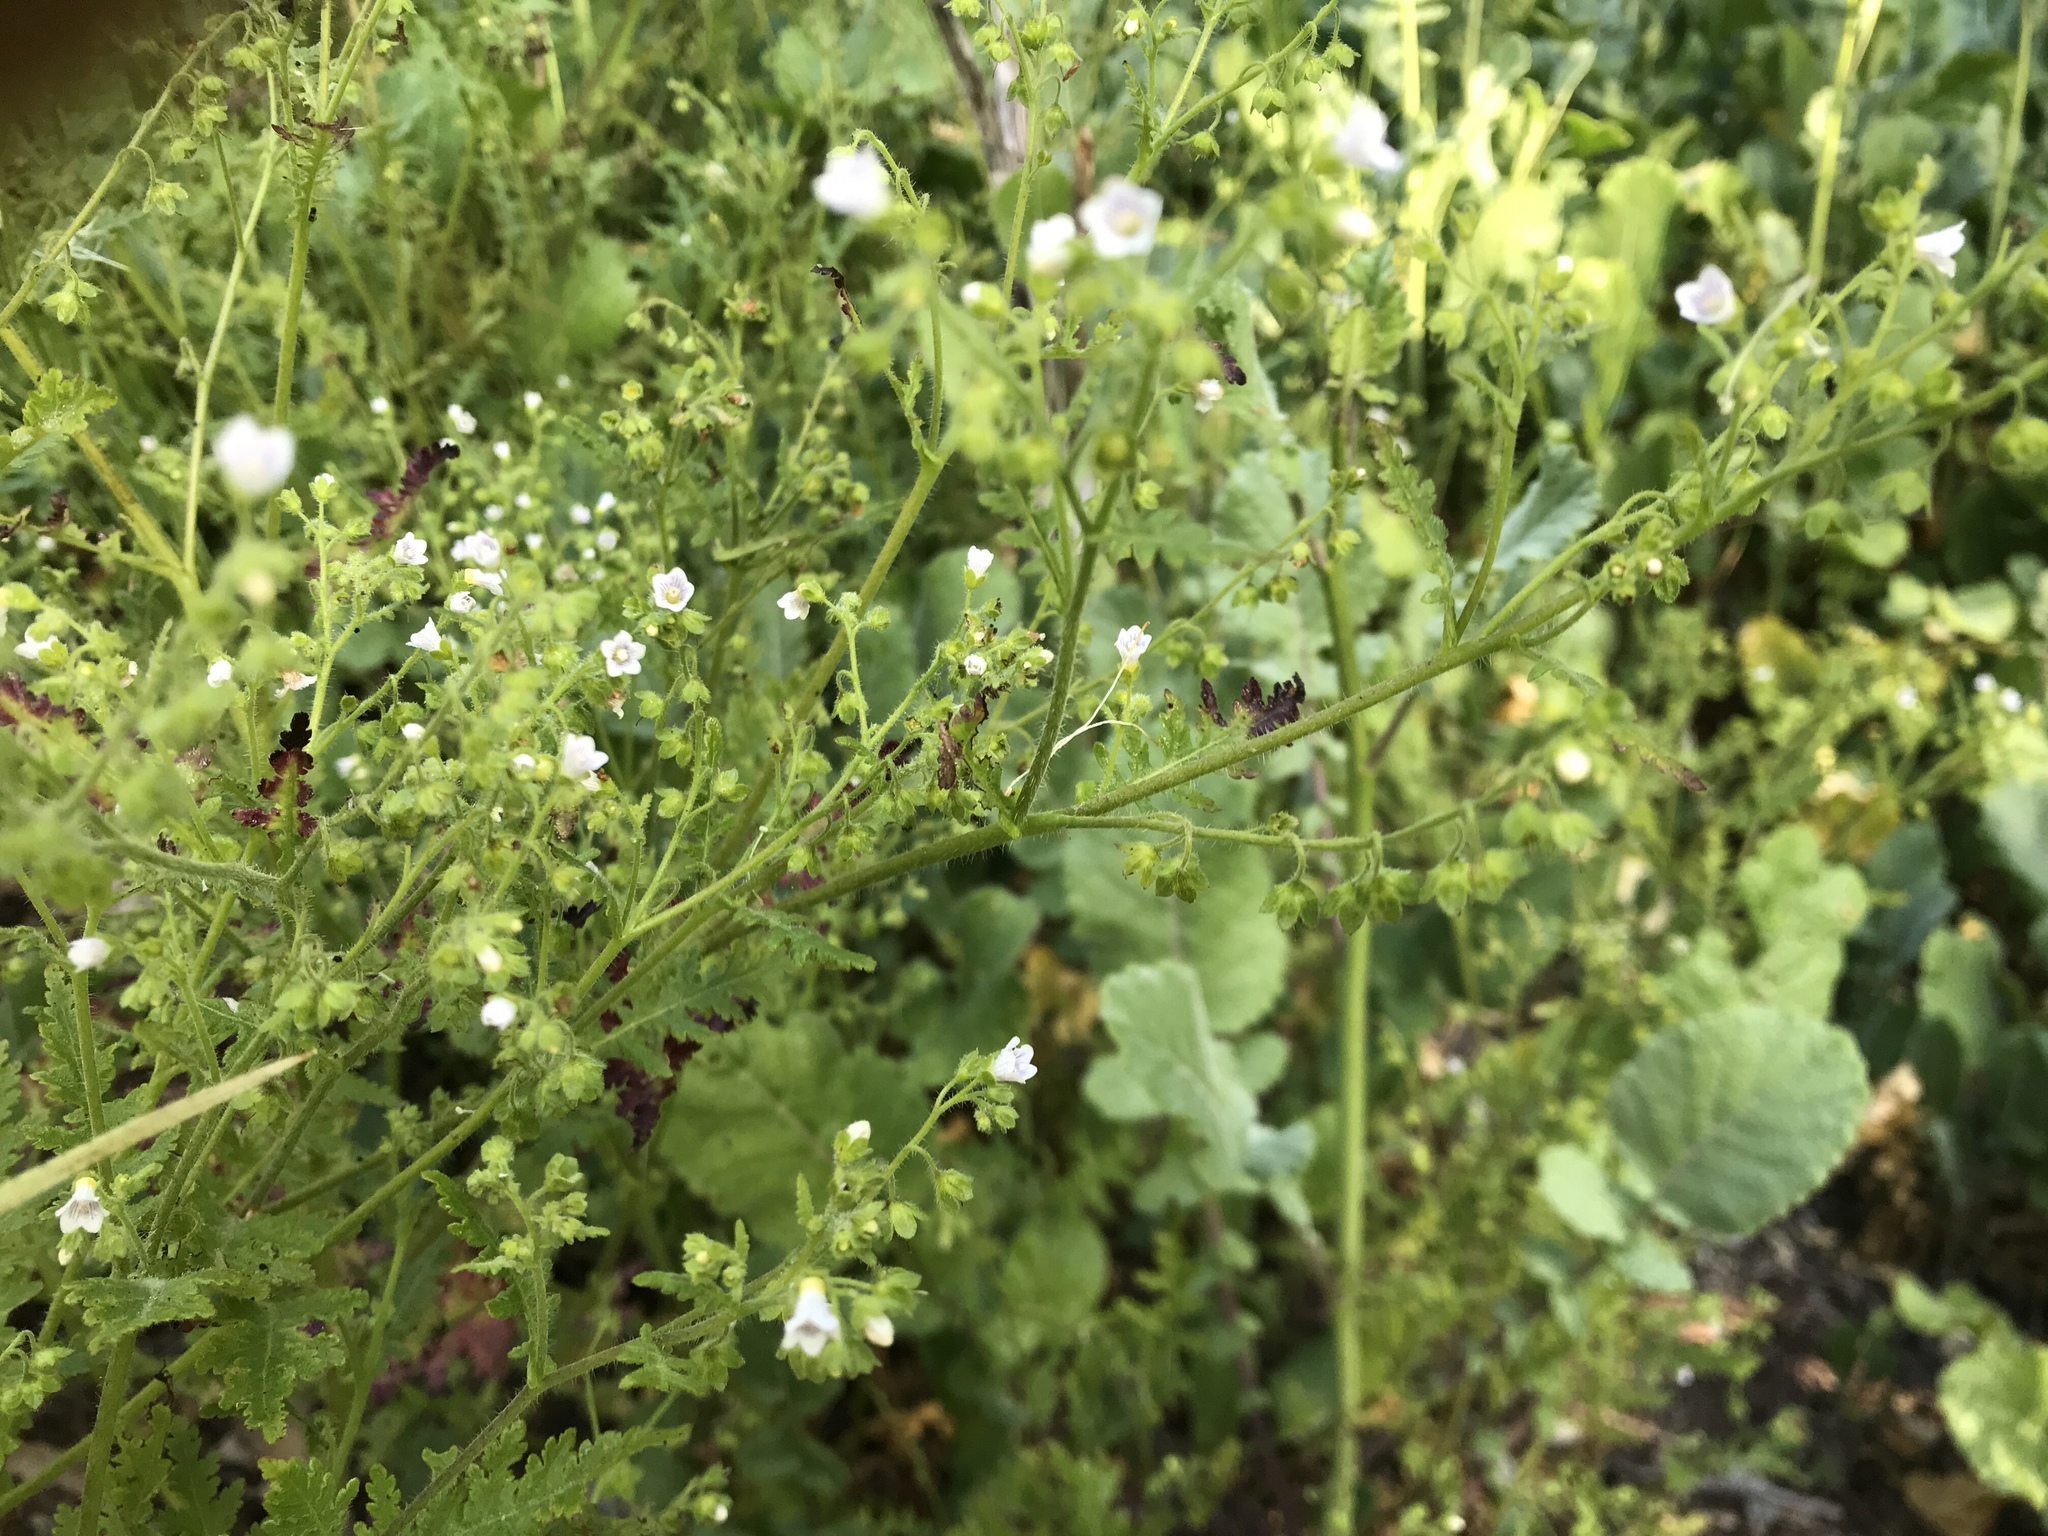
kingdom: Plantae
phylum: Tracheophyta
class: Magnoliopsida
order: Boraginales
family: Hydrophyllaceae
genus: Eucrypta
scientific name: Eucrypta chrysanthemifolia
